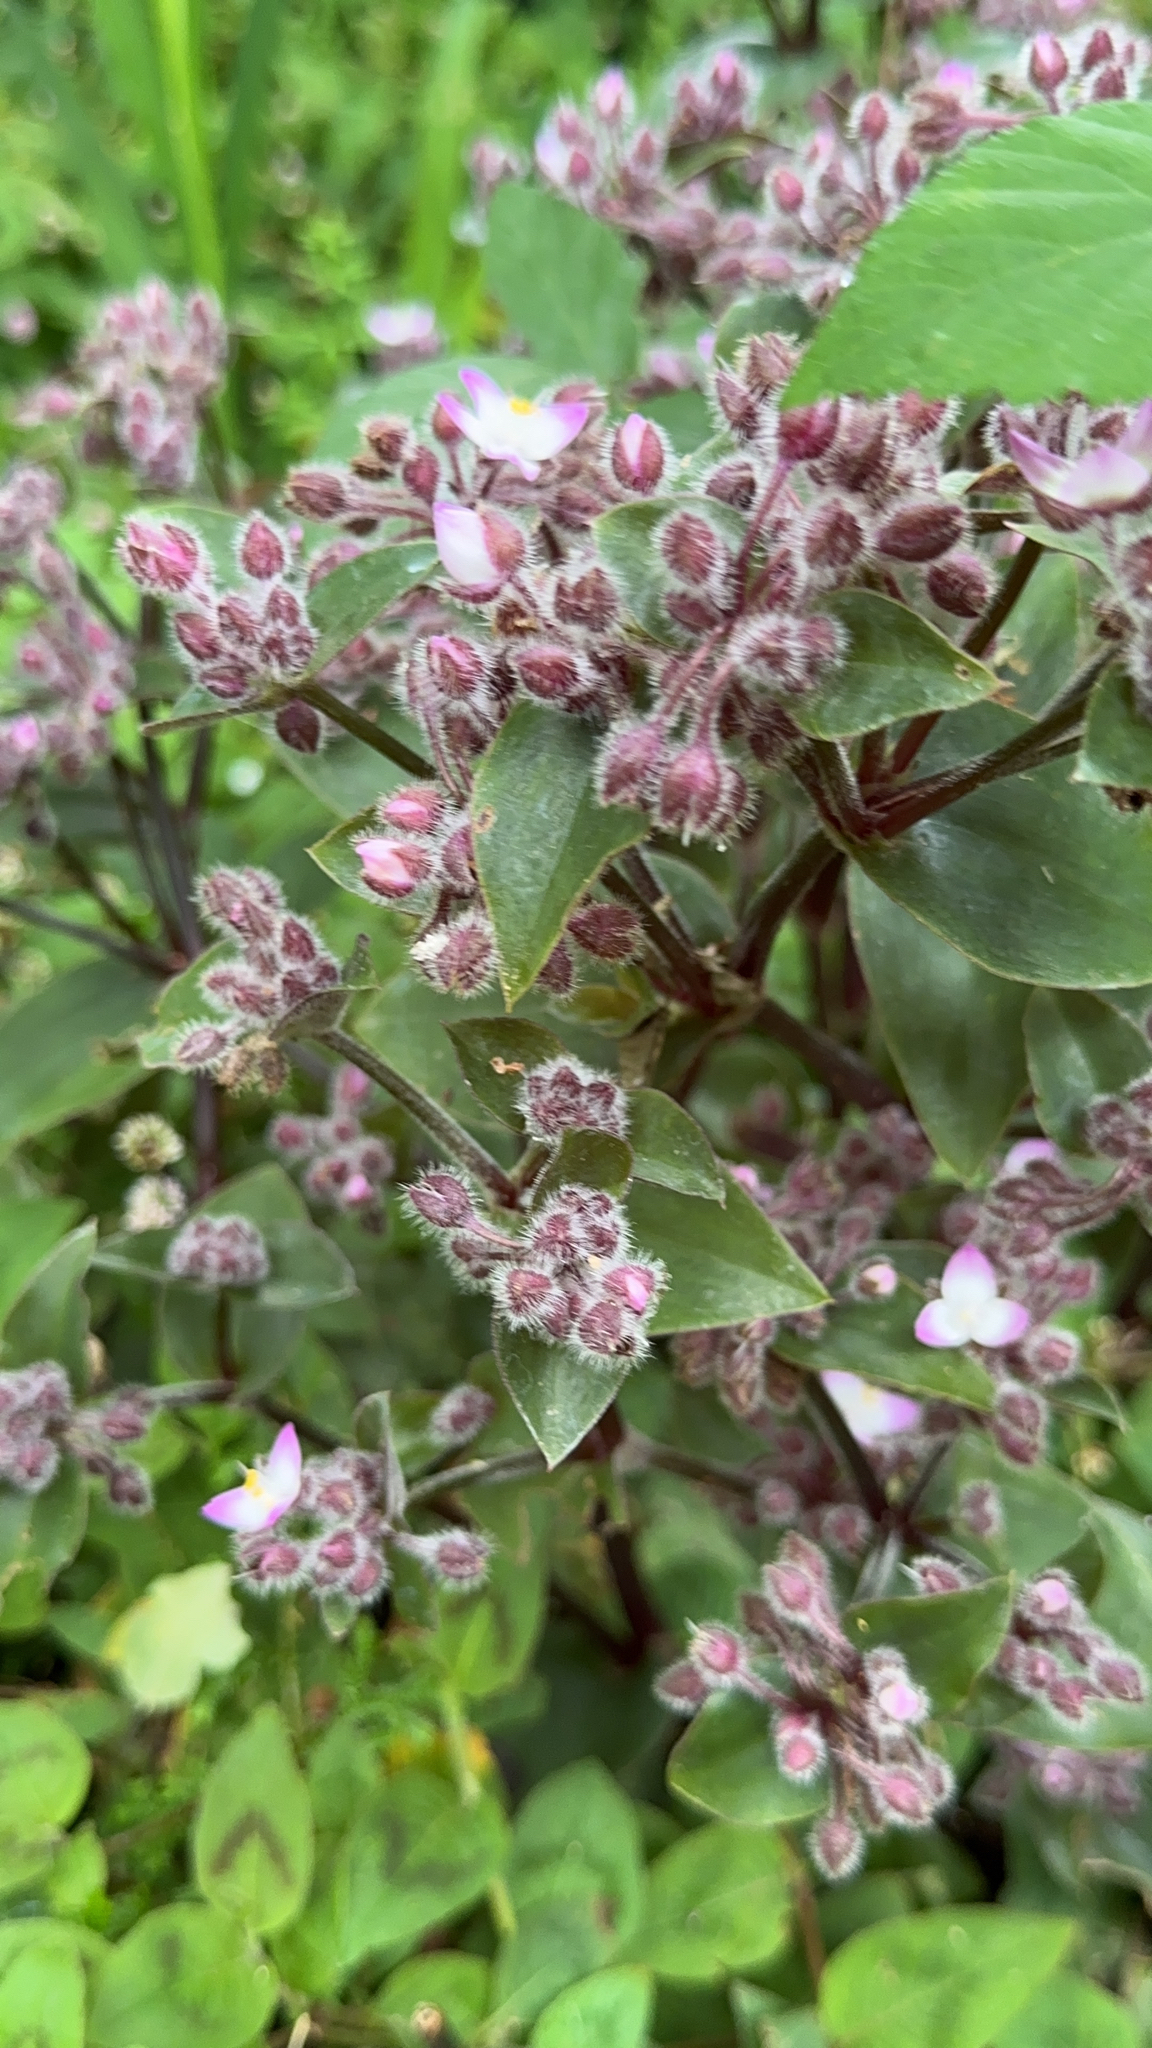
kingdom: Plantae
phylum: Tracheophyta
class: Liliopsida
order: Commelinales
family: Commelinaceae
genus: Tradescantia
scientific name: Tradescantia cerinthoides
